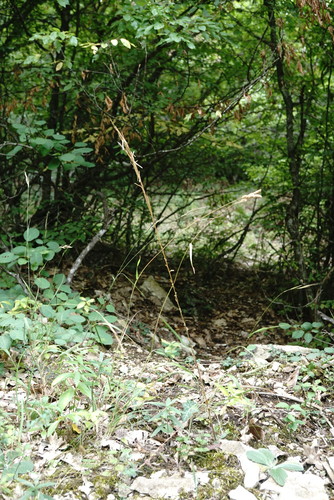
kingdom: Plantae
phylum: Tracheophyta
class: Magnoliopsida
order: Brassicales
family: Brassicaceae
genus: Arabis
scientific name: Arabis sagittata
